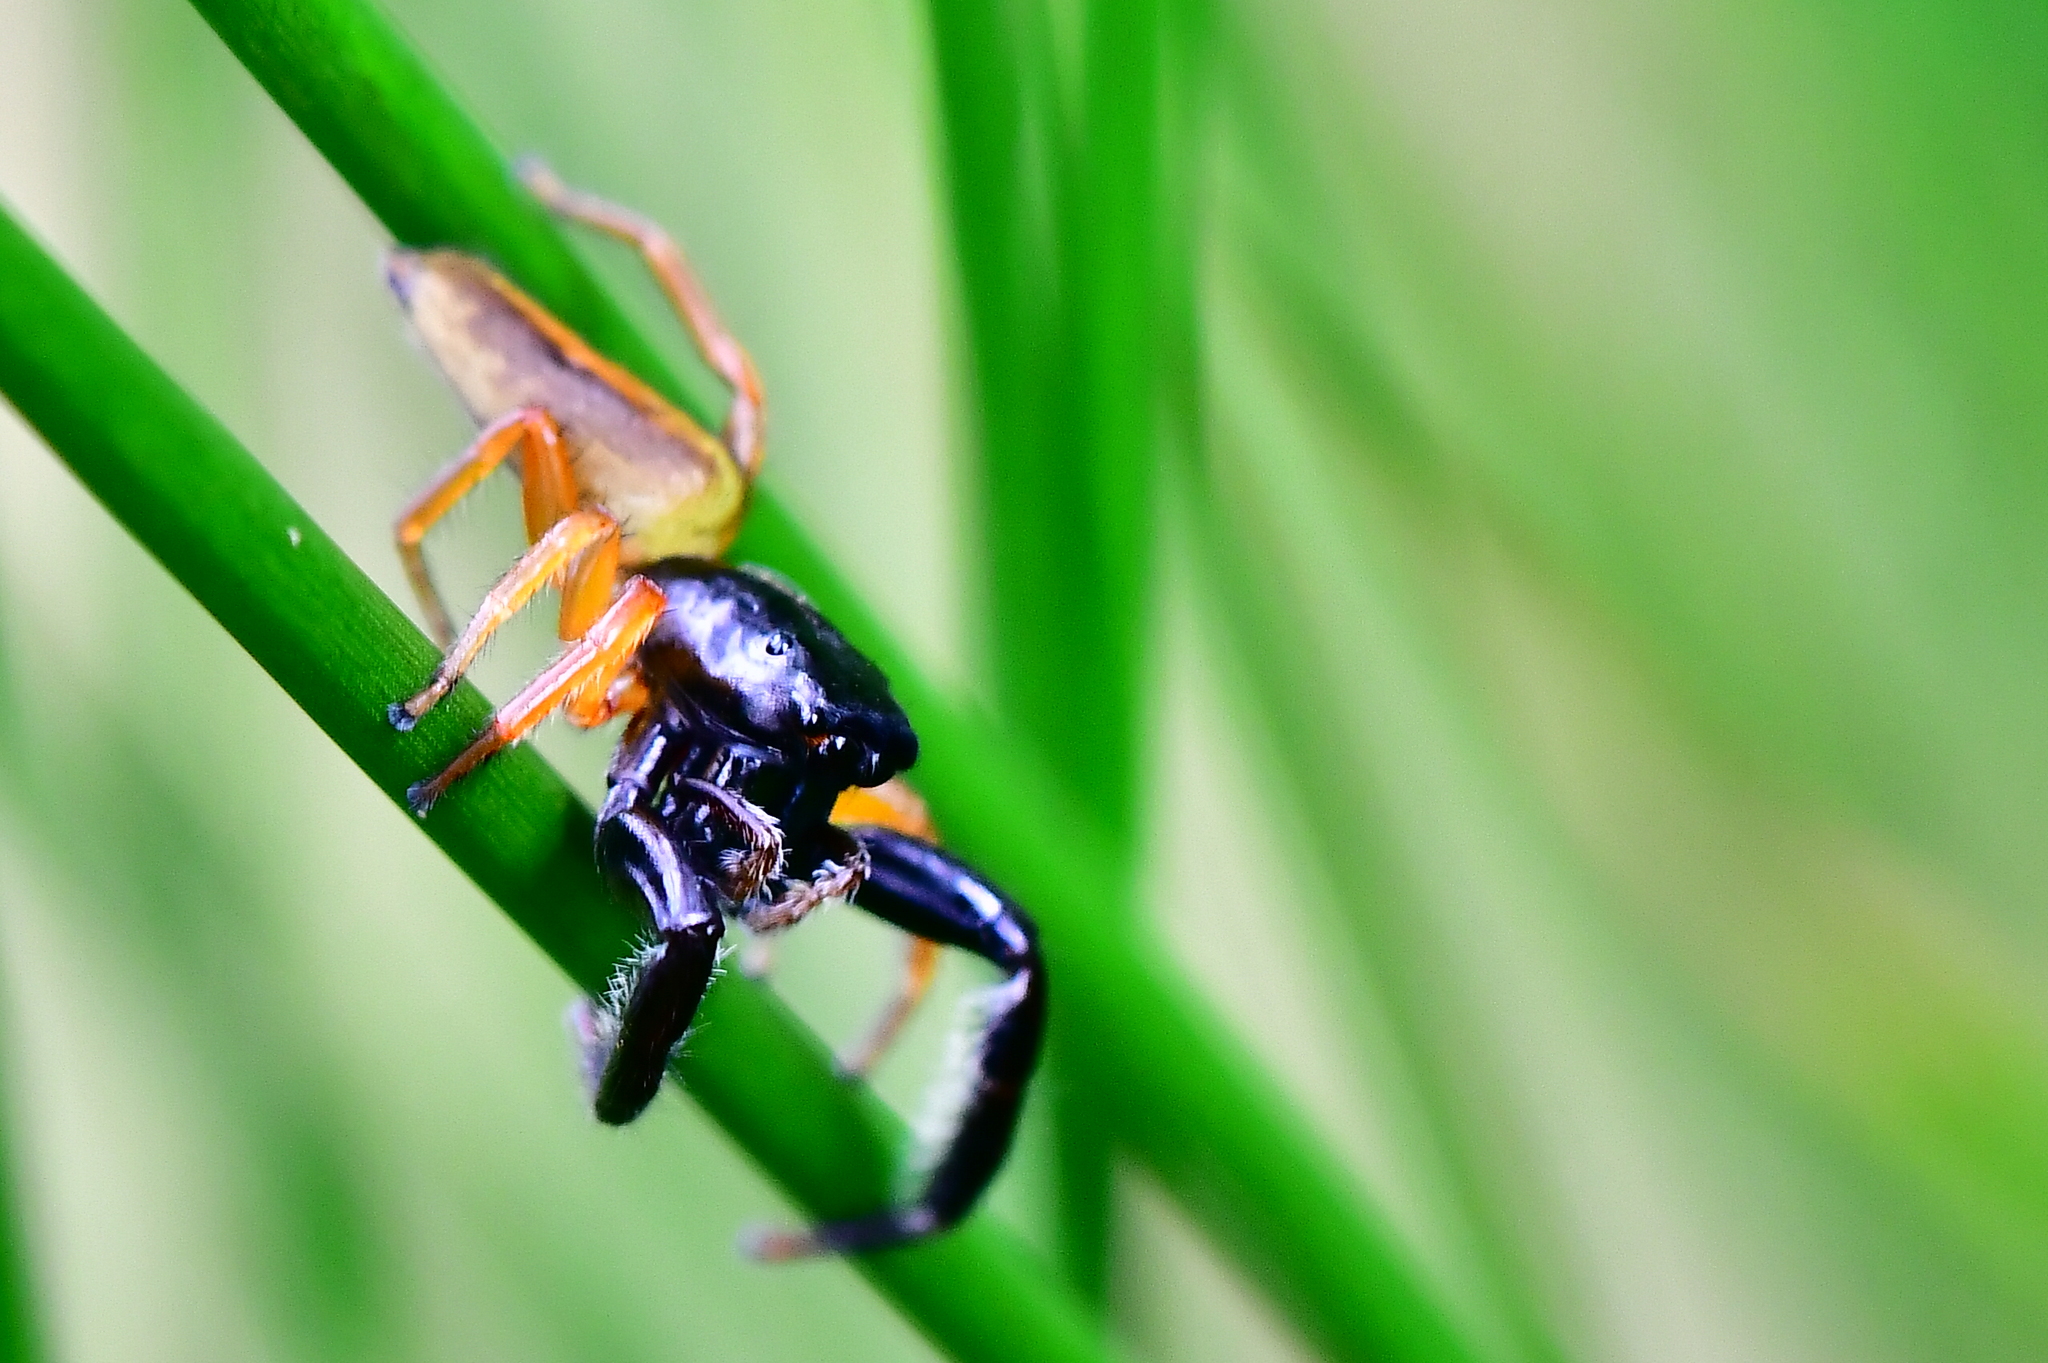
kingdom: Animalia
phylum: Arthropoda
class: Arachnida
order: Araneae
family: Salticidae
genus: Trite
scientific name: Trite planiceps
